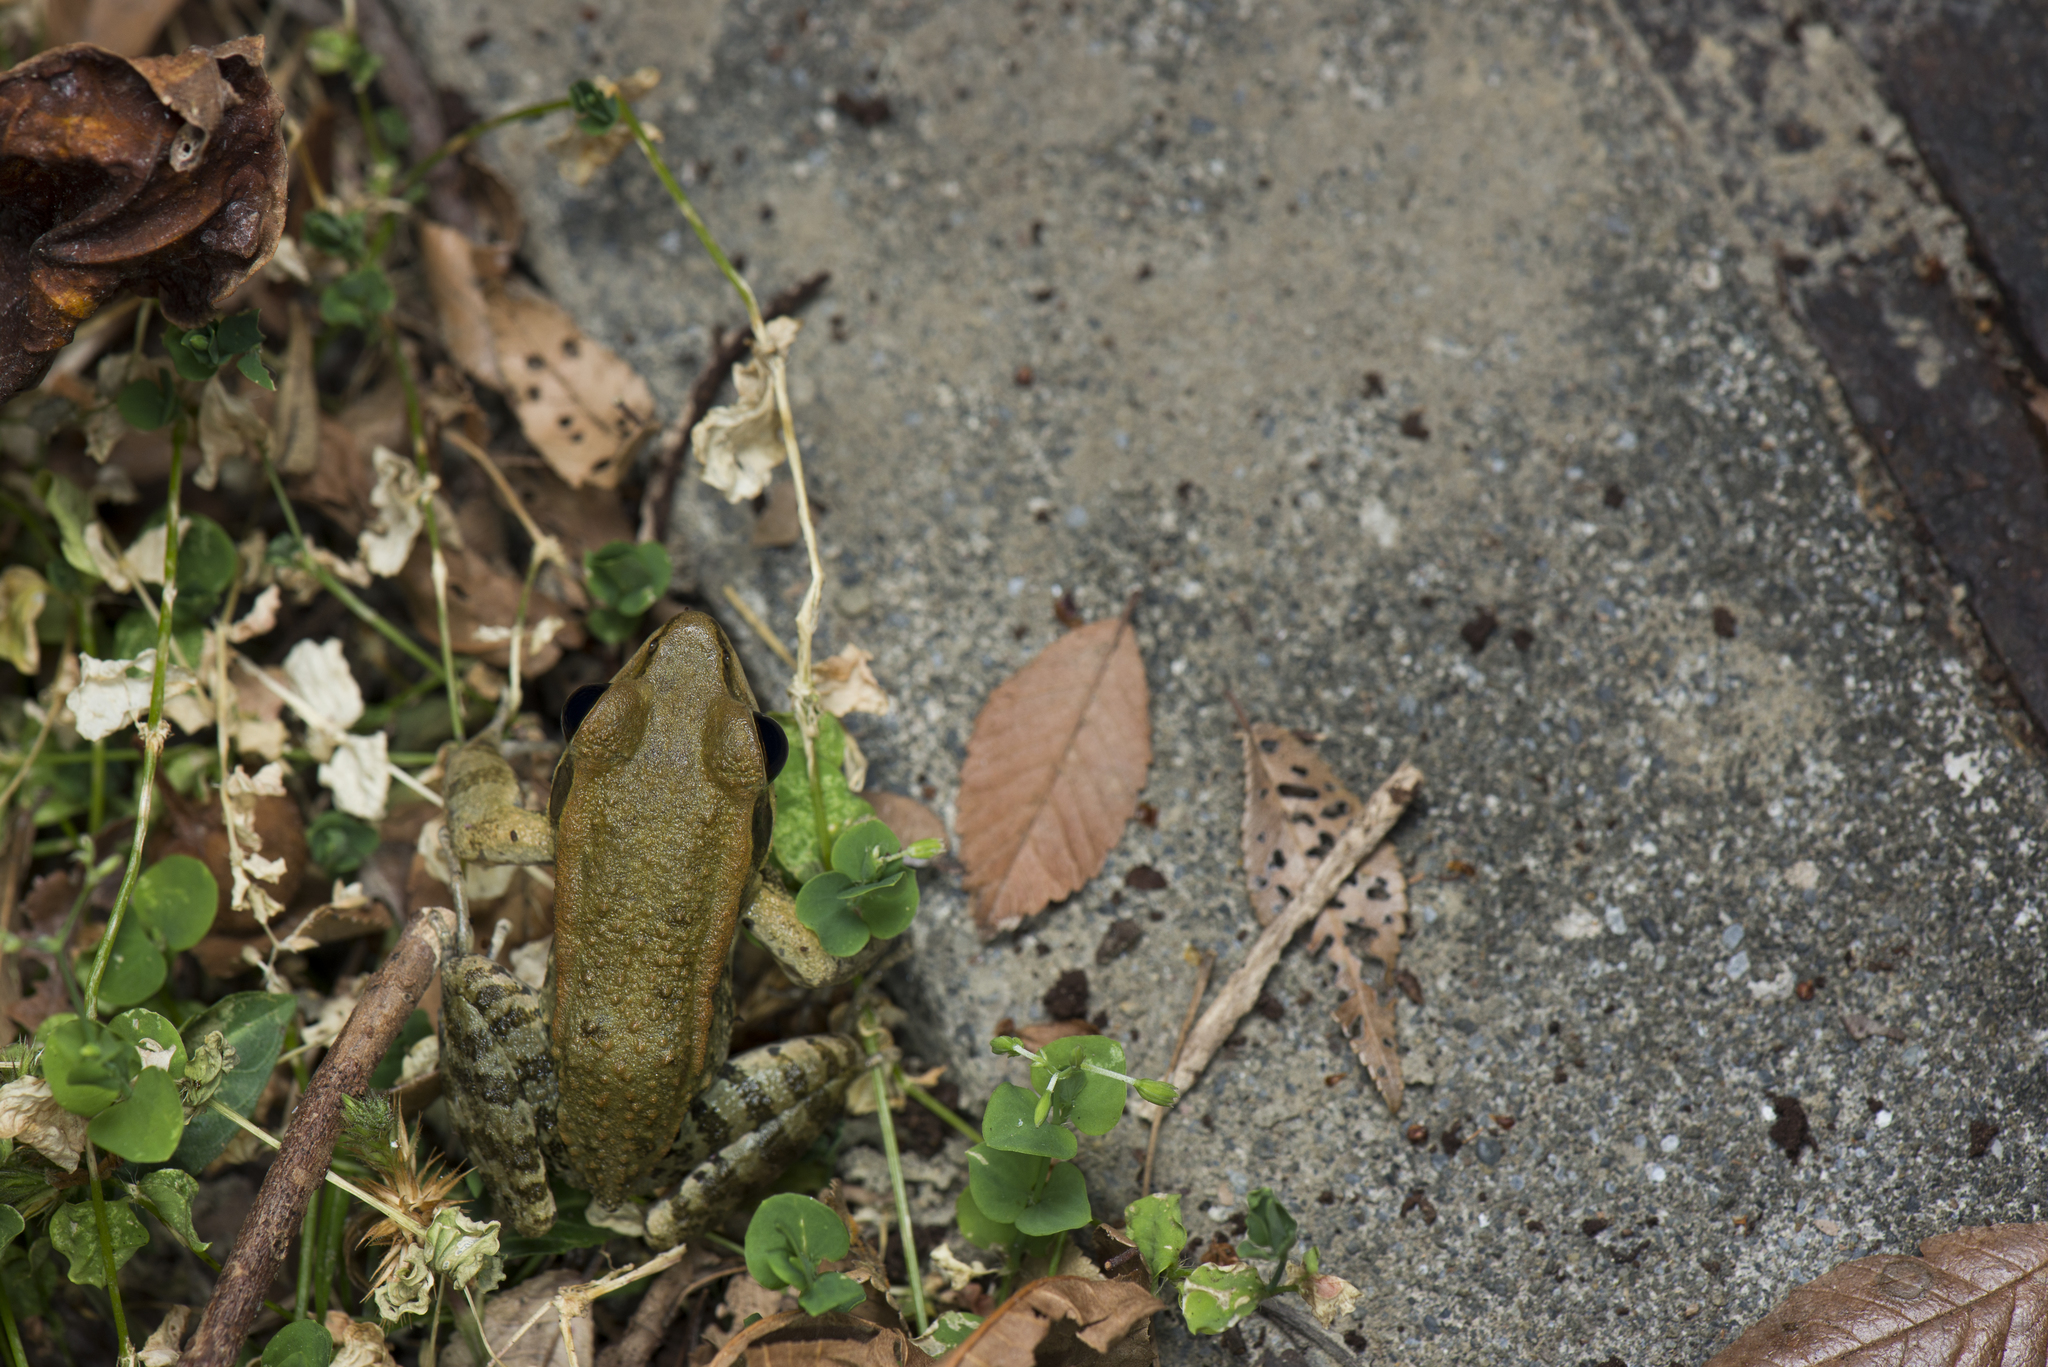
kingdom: Animalia
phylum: Chordata
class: Amphibia
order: Anura
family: Ranidae
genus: Hylarana
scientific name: Hylarana latouchii
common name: Broad-folded frog
